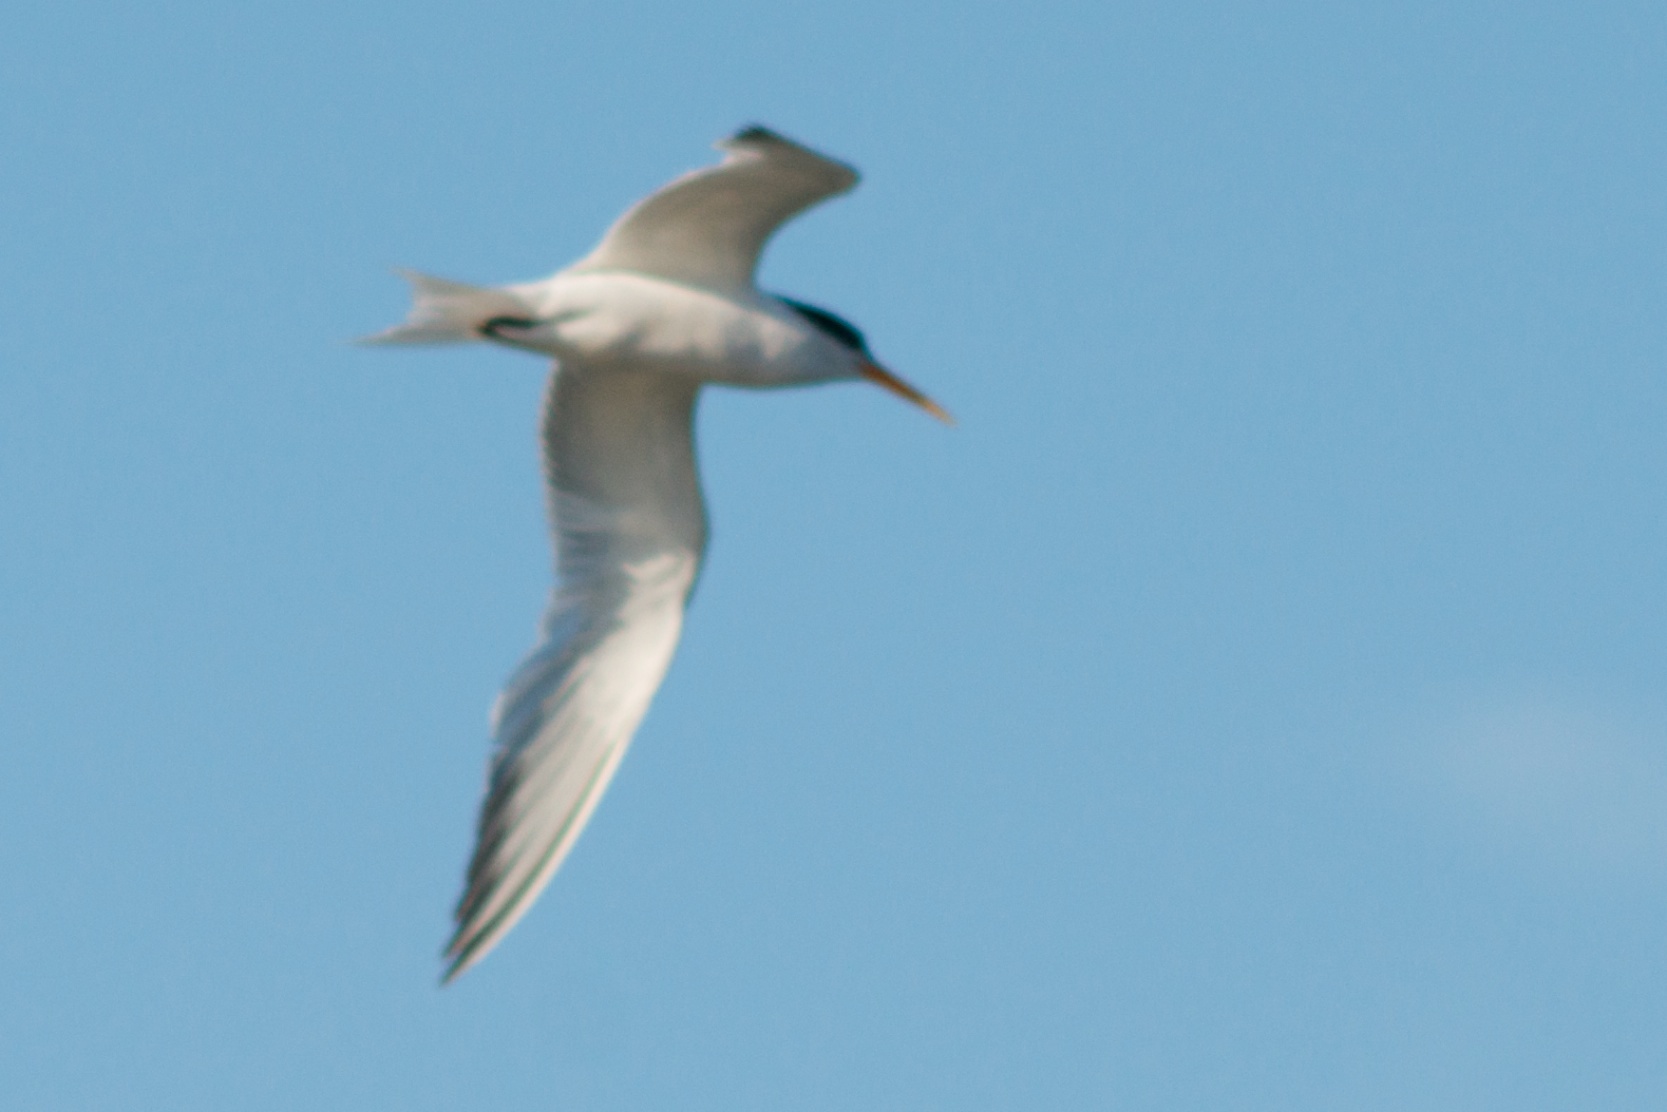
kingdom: Animalia
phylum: Chordata
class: Aves
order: Charadriiformes
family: Laridae
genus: Thalasseus
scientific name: Thalasseus elegans
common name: Elegant tern
